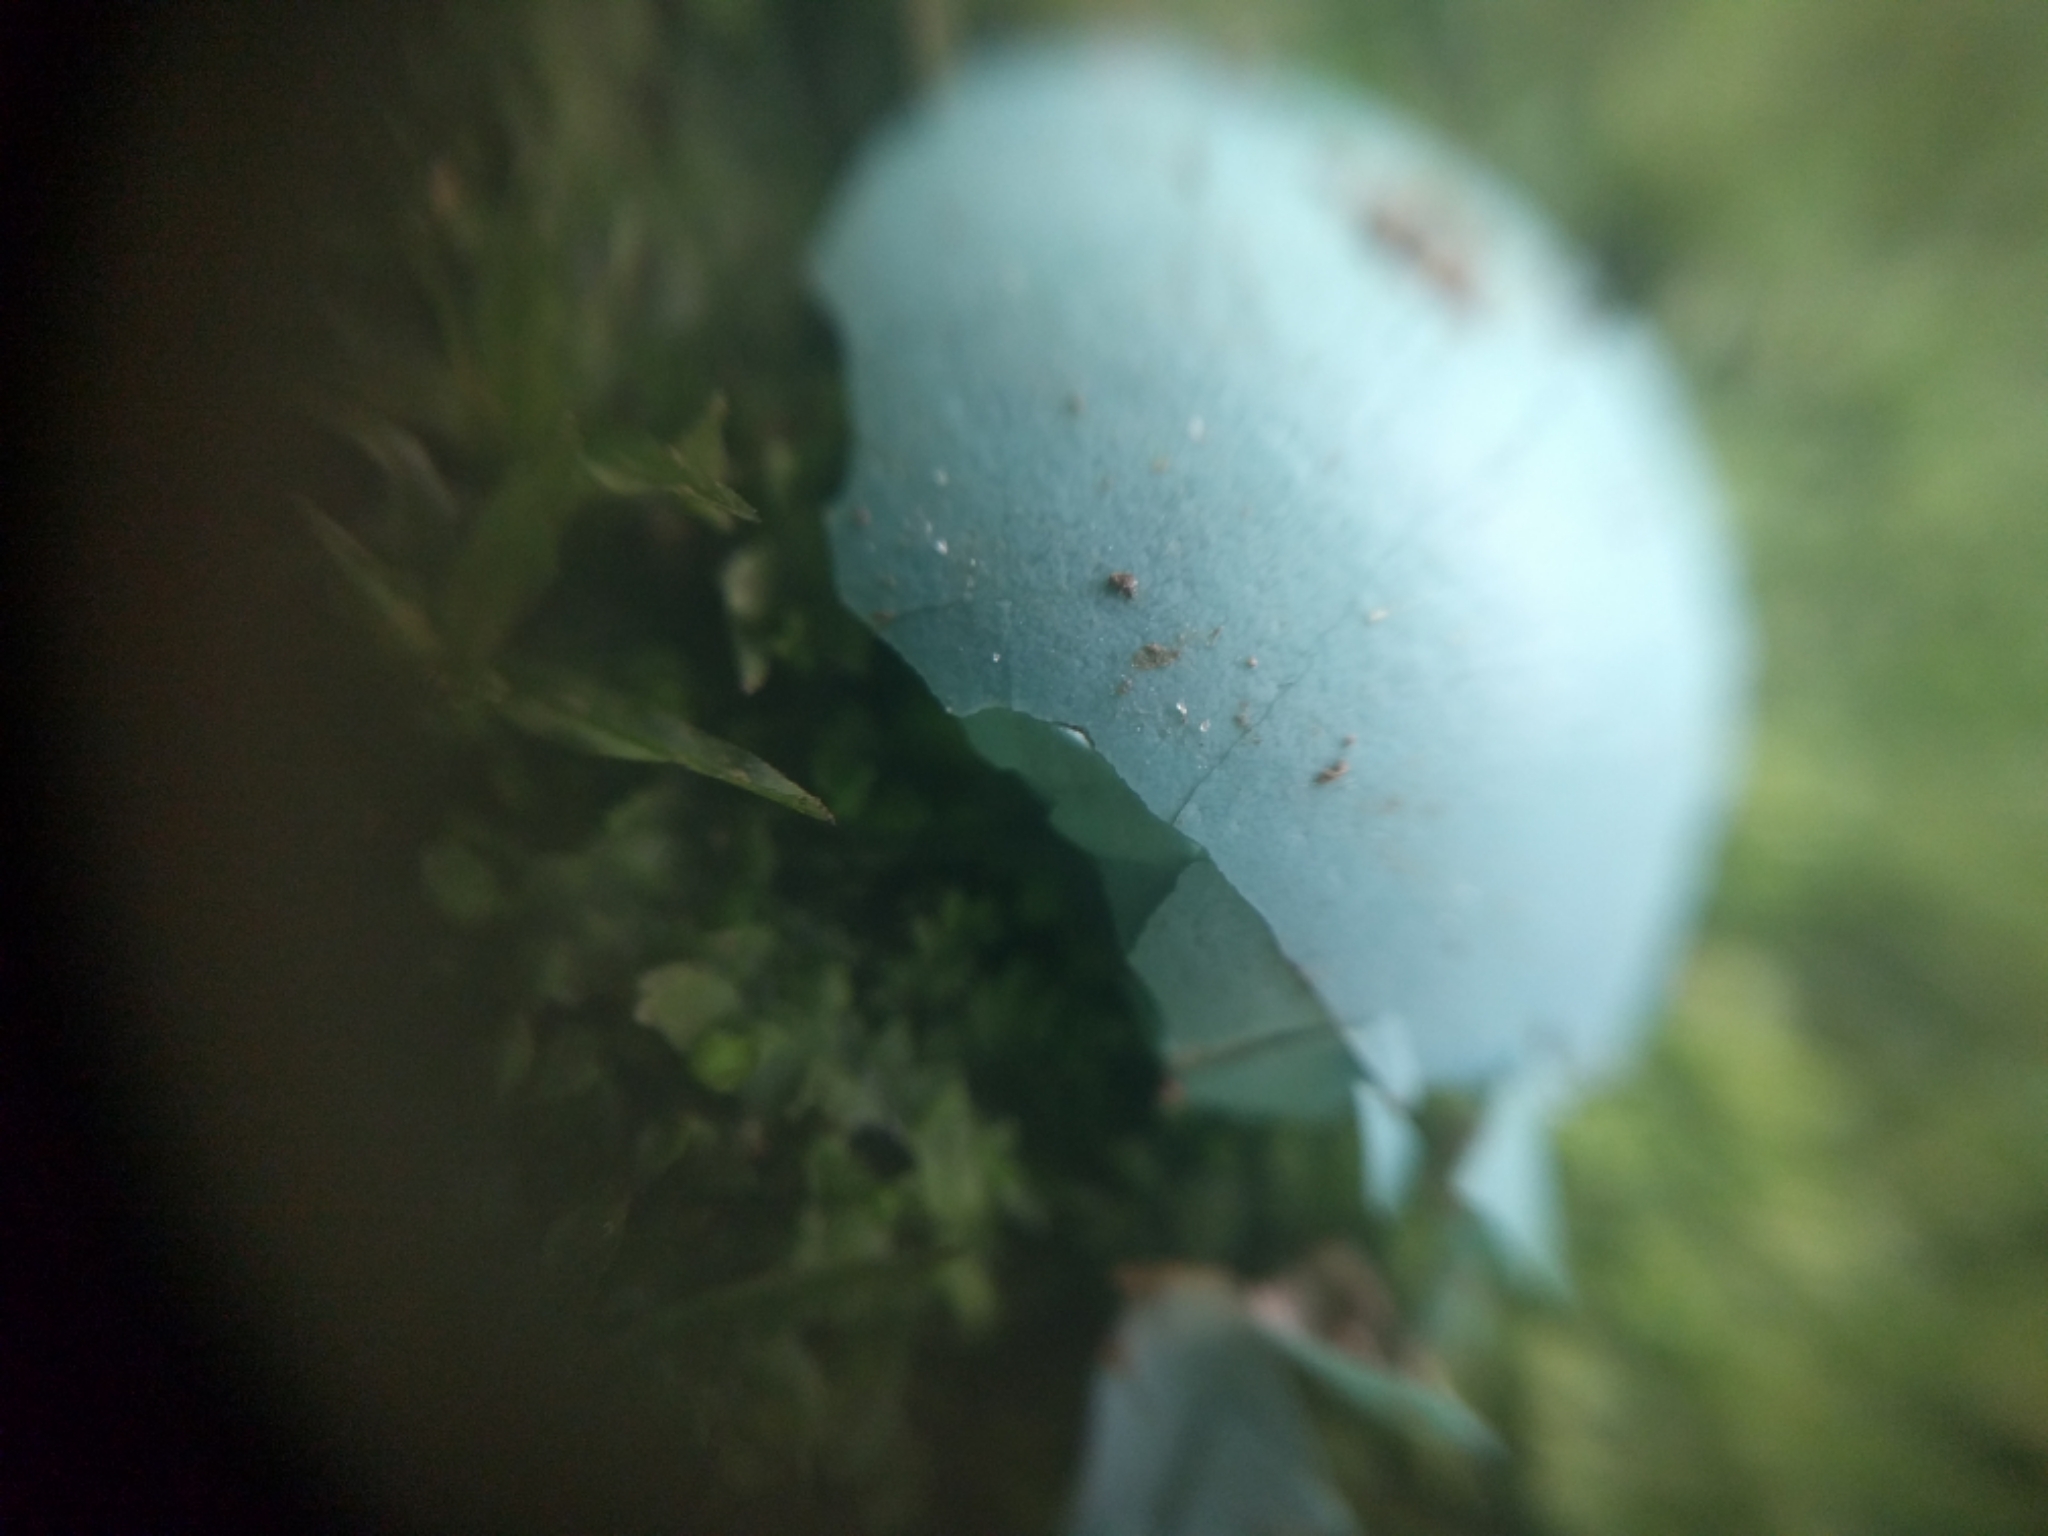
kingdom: Animalia
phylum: Chordata
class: Aves
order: Passeriformes
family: Turdidae
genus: Turdus
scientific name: Turdus migratorius
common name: American robin
